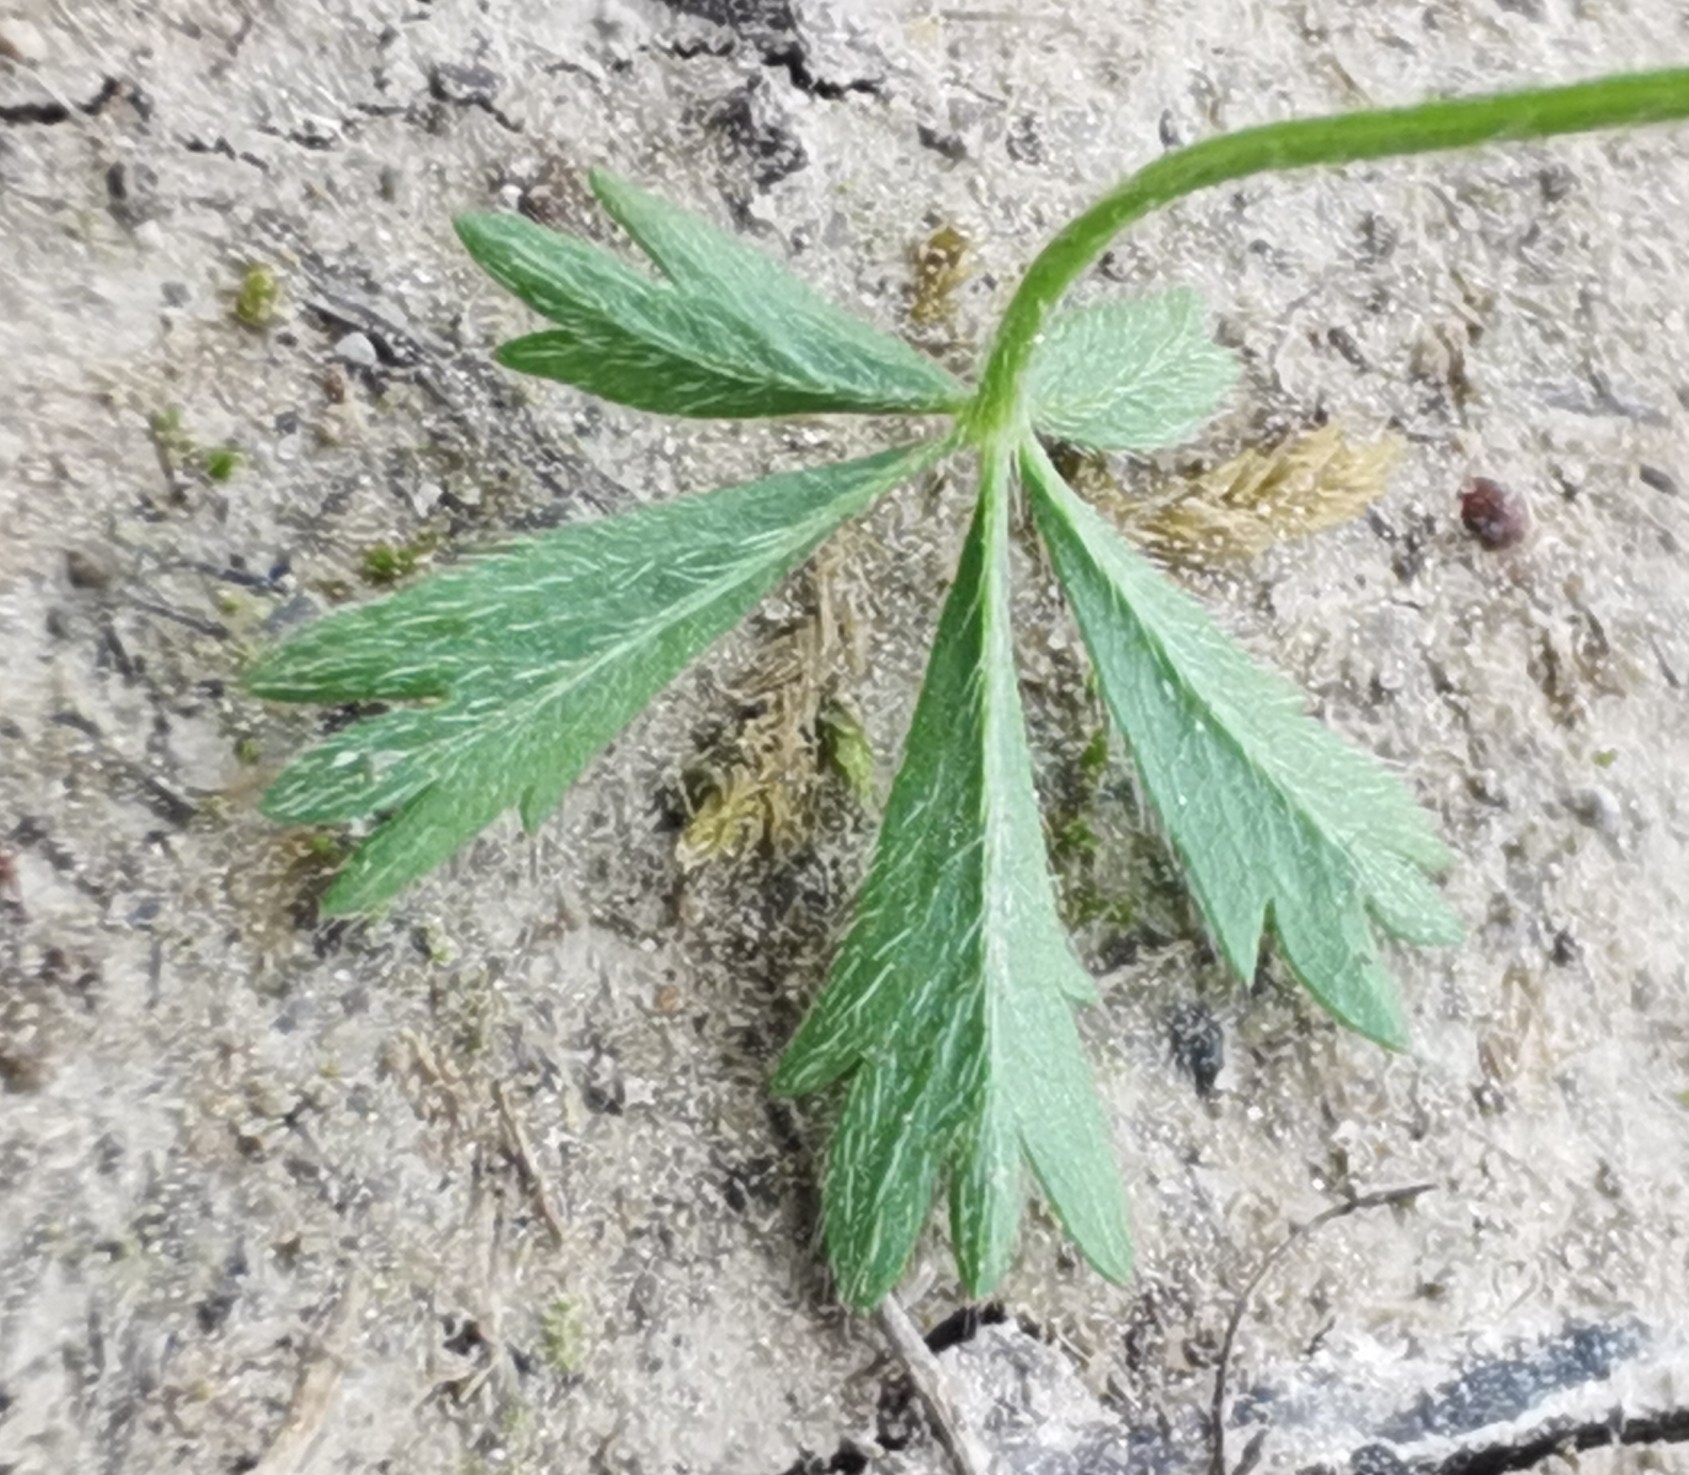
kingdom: Plantae
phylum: Tracheophyta
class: Magnoliopsida
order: Rosales
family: Rosaceae
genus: Potentilla
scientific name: Potentilla verna
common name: Spring cinquefoil
